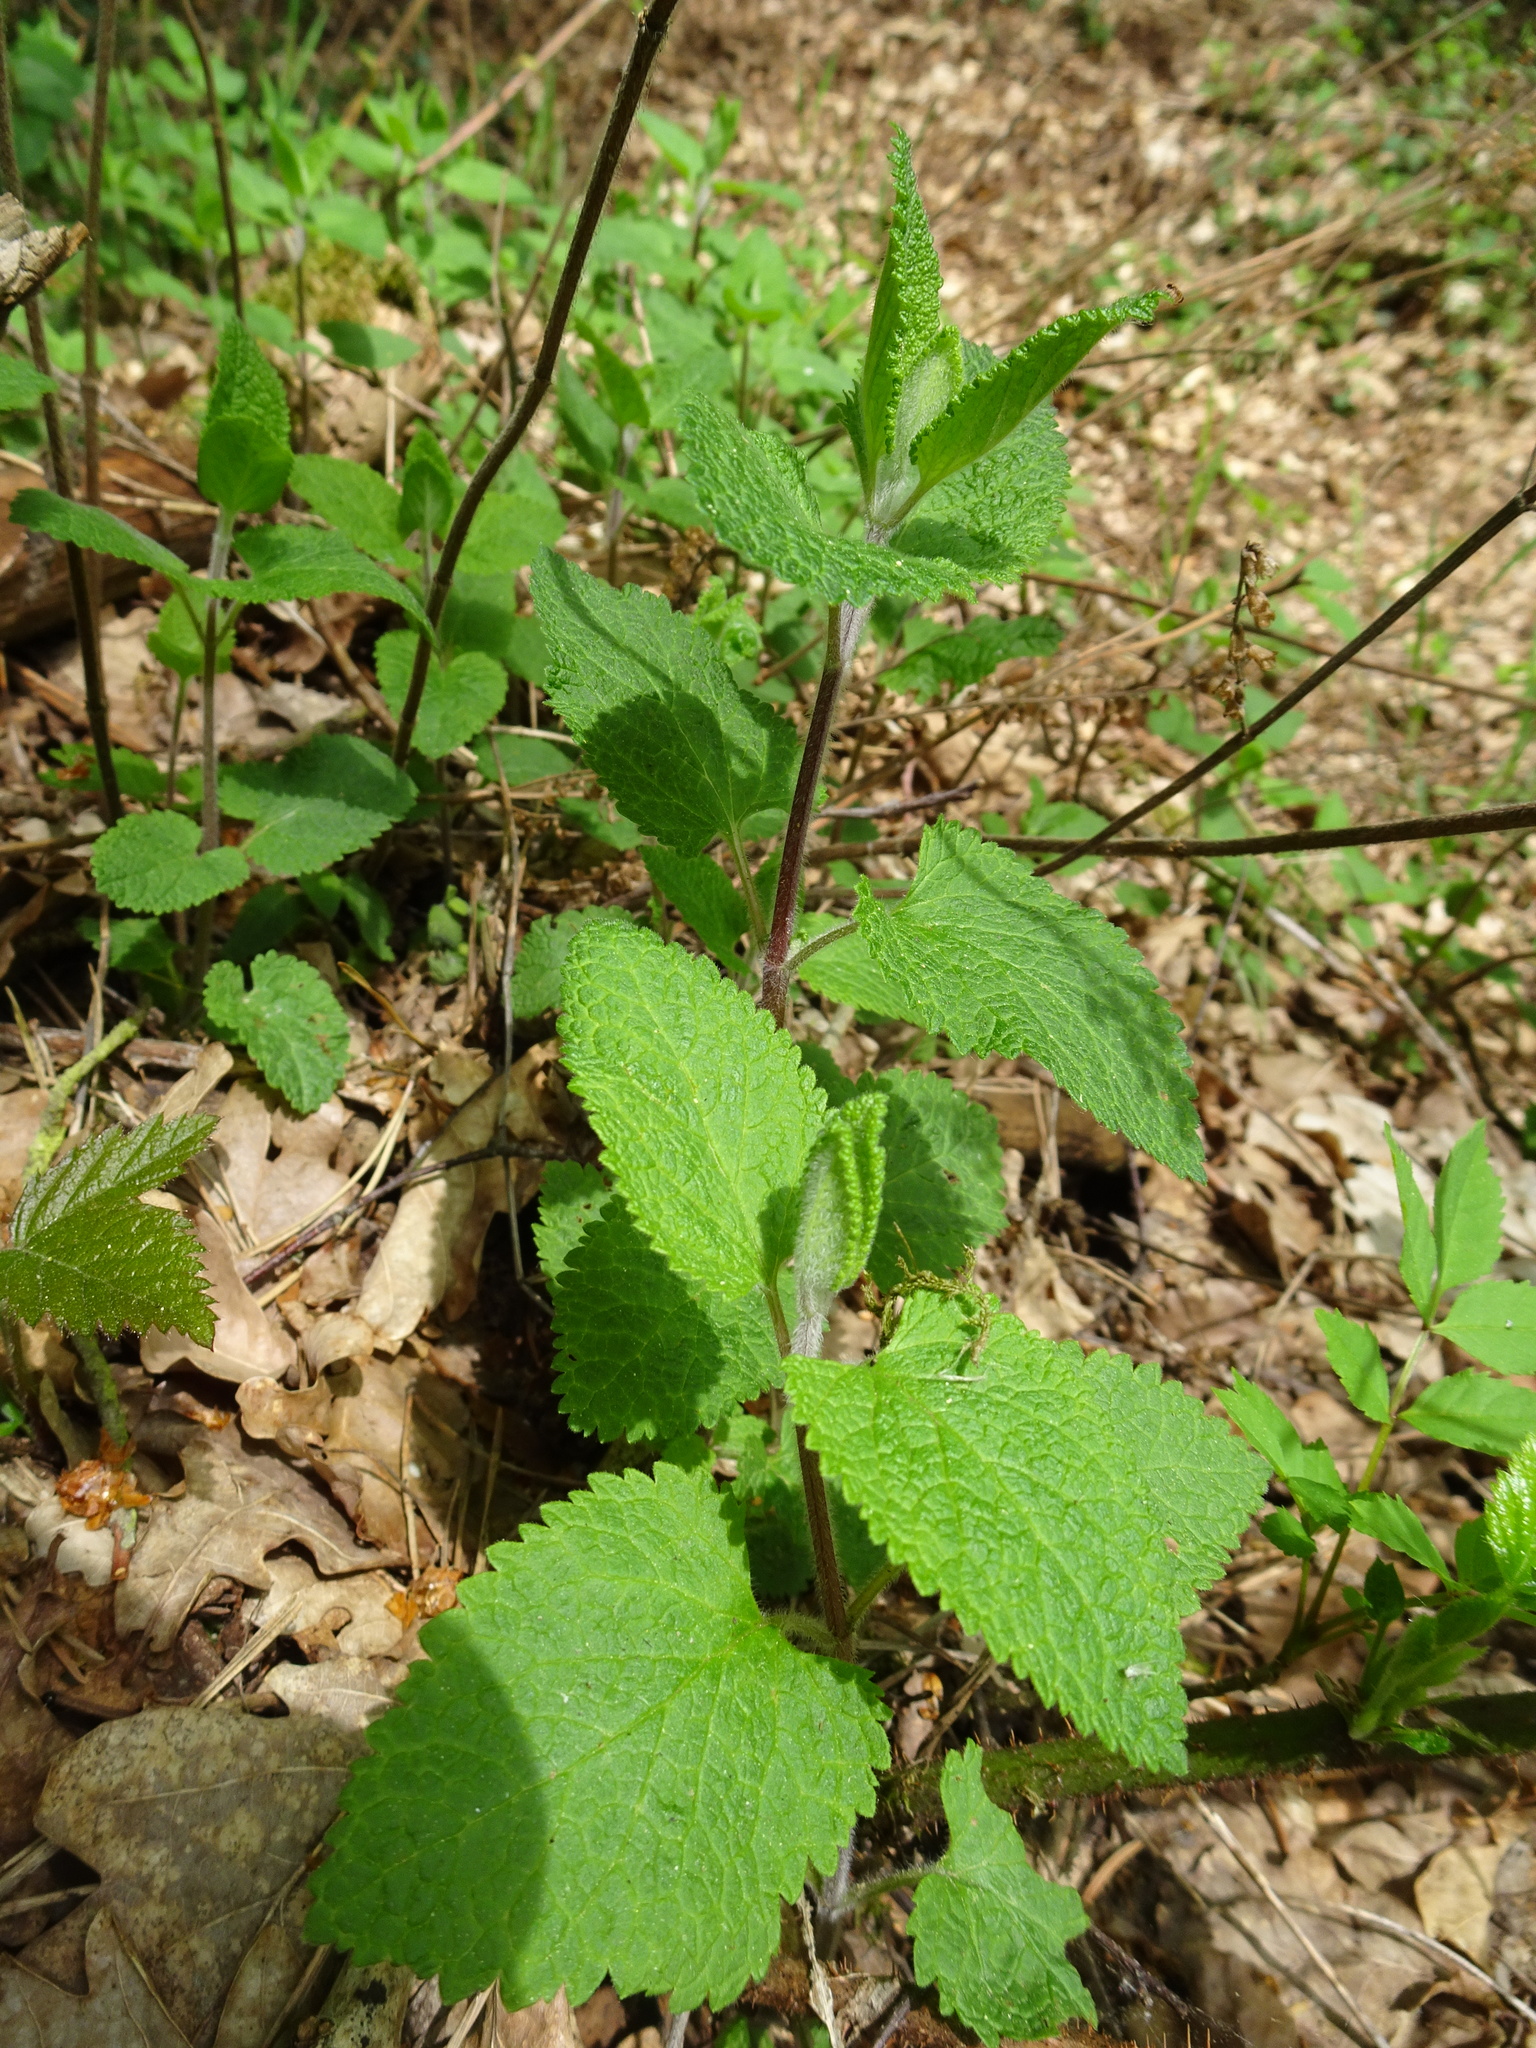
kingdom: Plantae
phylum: Tracheophyta
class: Magnoliopsida
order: Lamiales
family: Lamiaceae
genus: Teucrium
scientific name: Teucrium scorodonia
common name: Woodland germander
